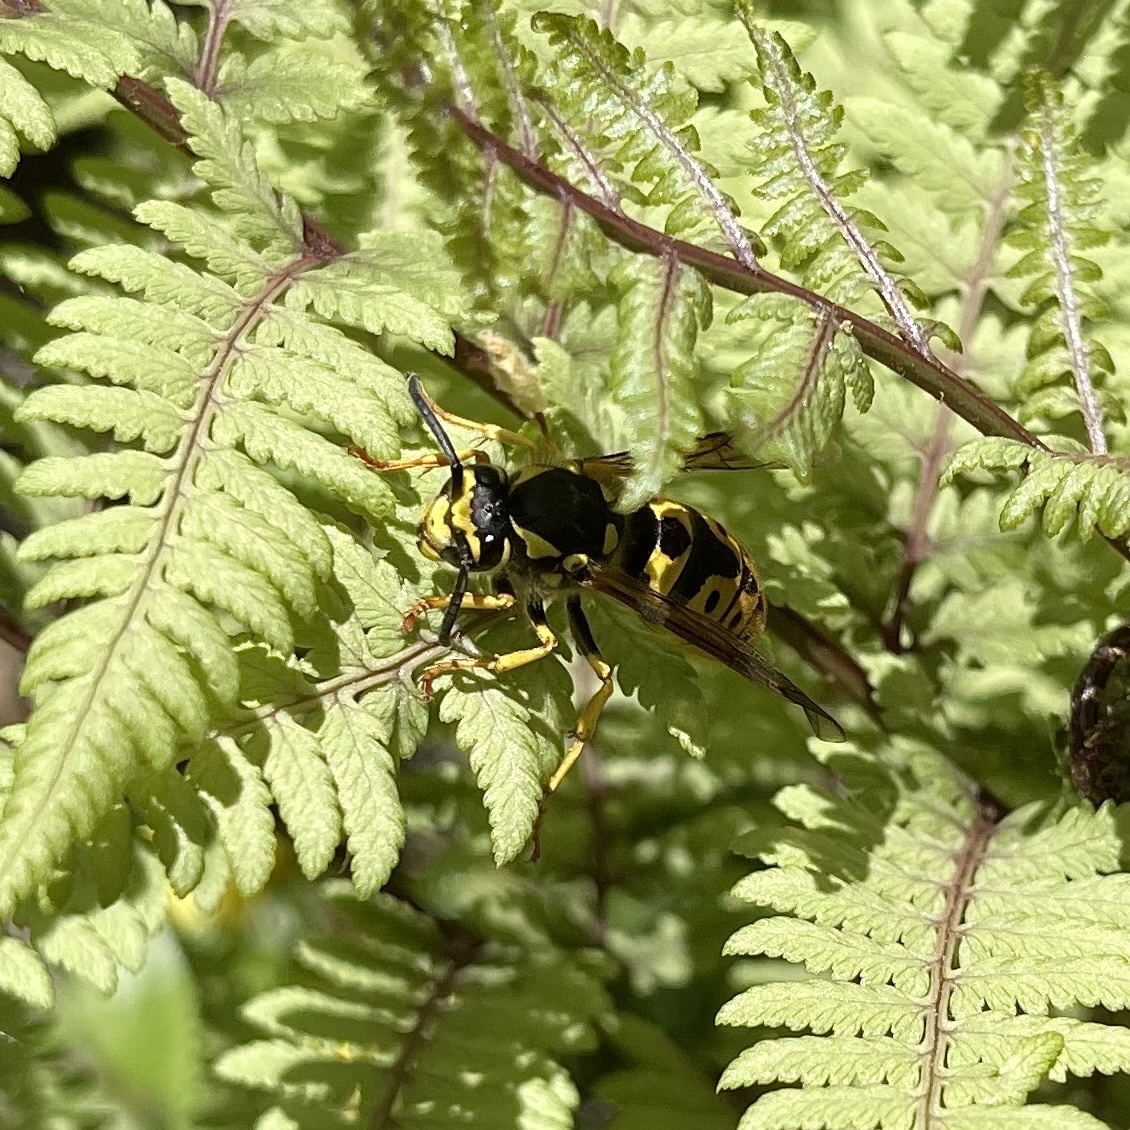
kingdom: Animalia
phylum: Arthropoda
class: Insecta
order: Hymenoptera
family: Vespidae
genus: Vespula
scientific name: Vespula germanica
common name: German wasp
